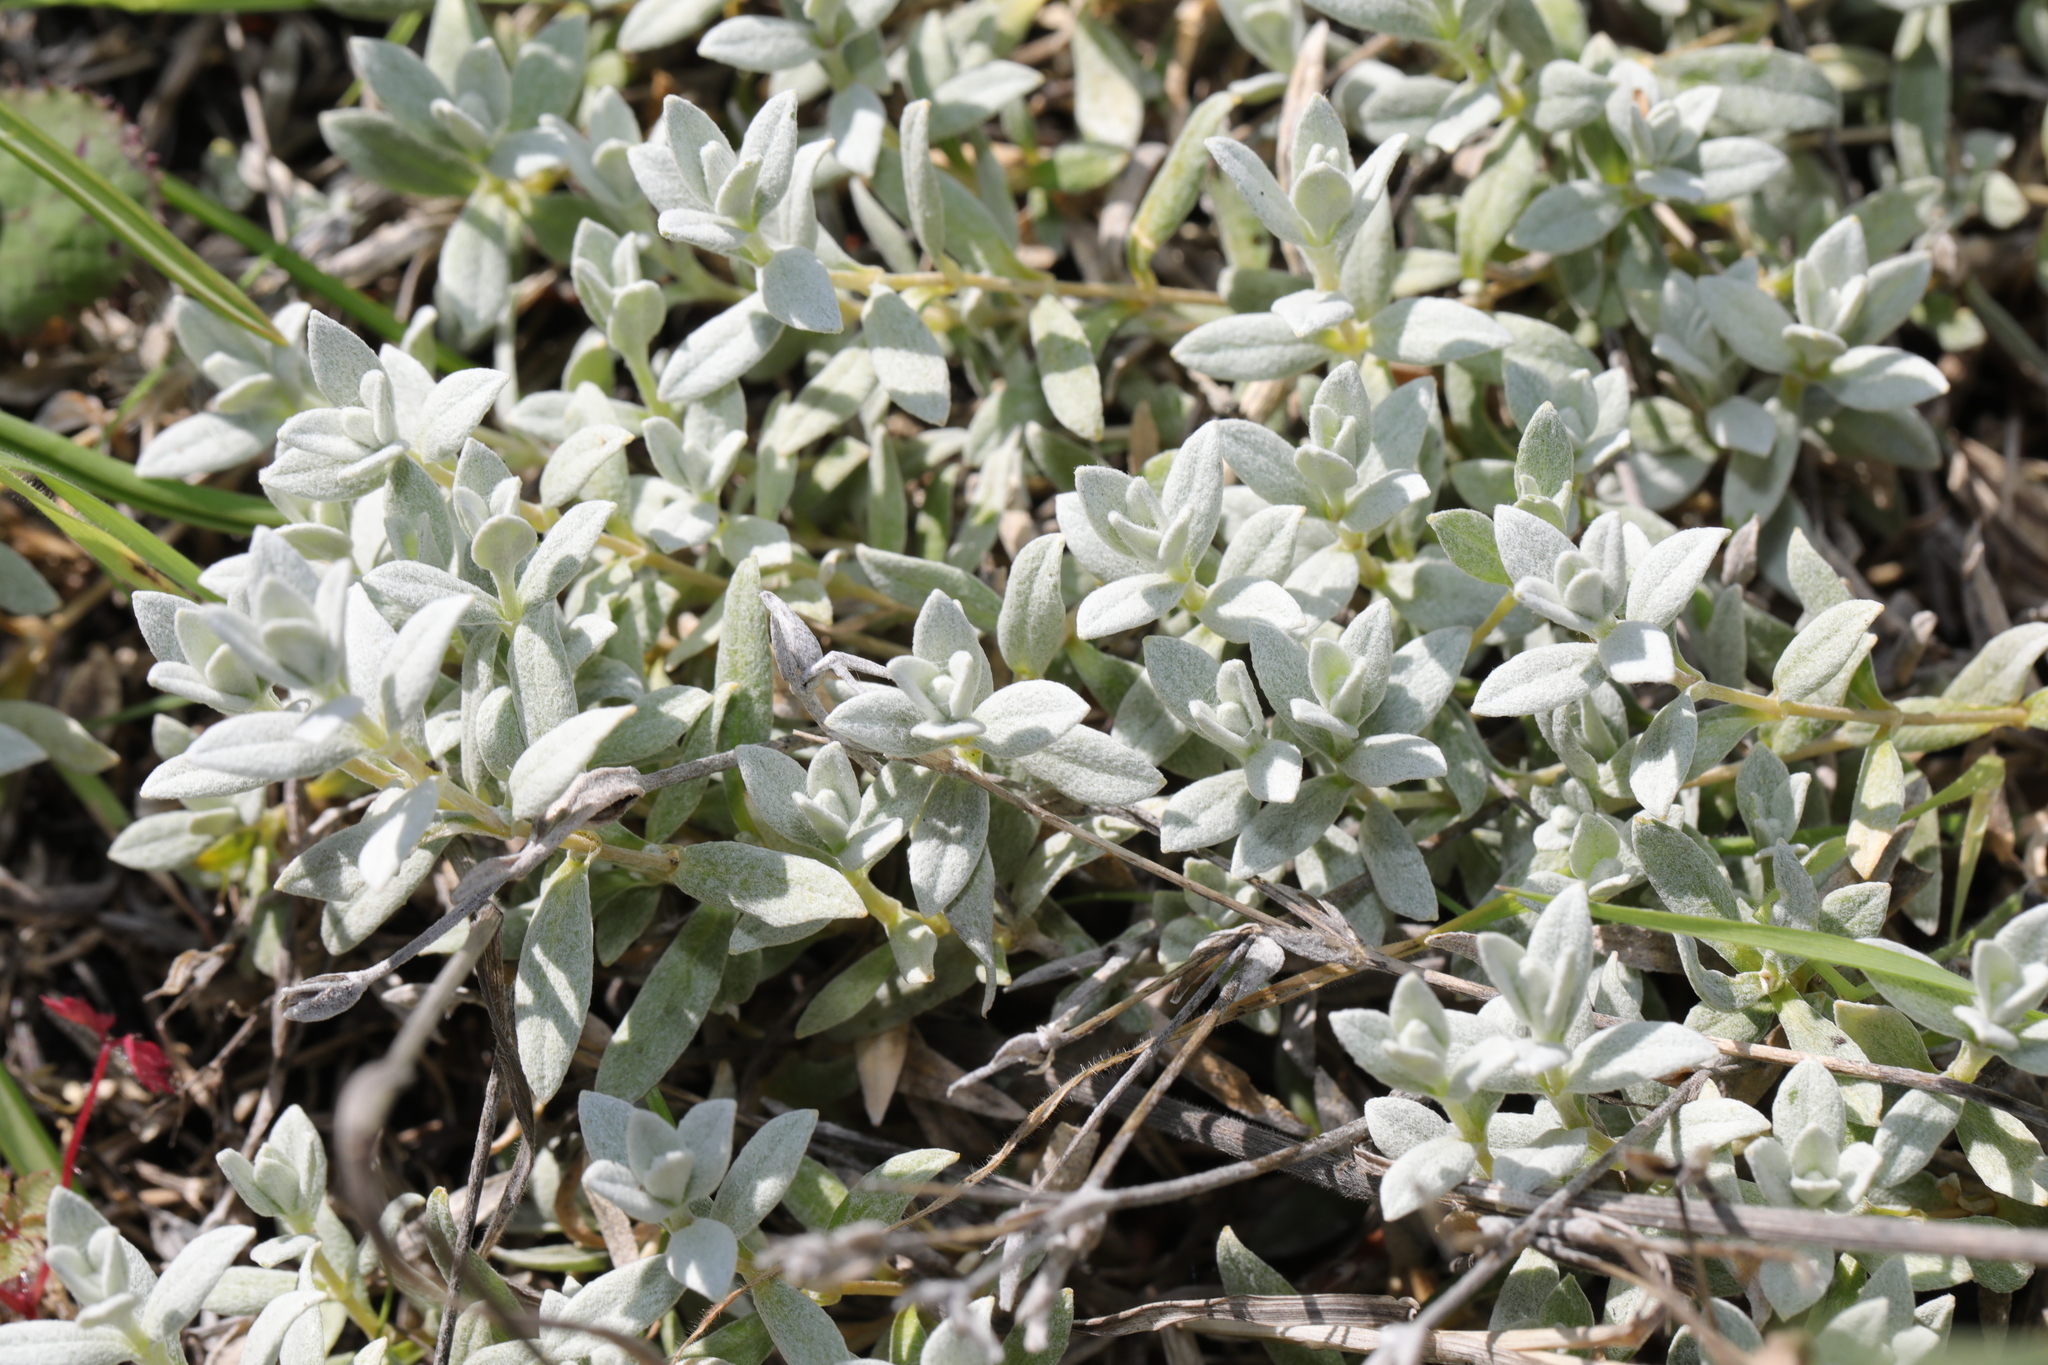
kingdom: Plantae
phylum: Tracheophyta
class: Magnoliopsida
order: Caryophyllales
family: Caryophyllaceae
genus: Cerastium
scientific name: Cerastium tomentosum
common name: Snow-in-summer
